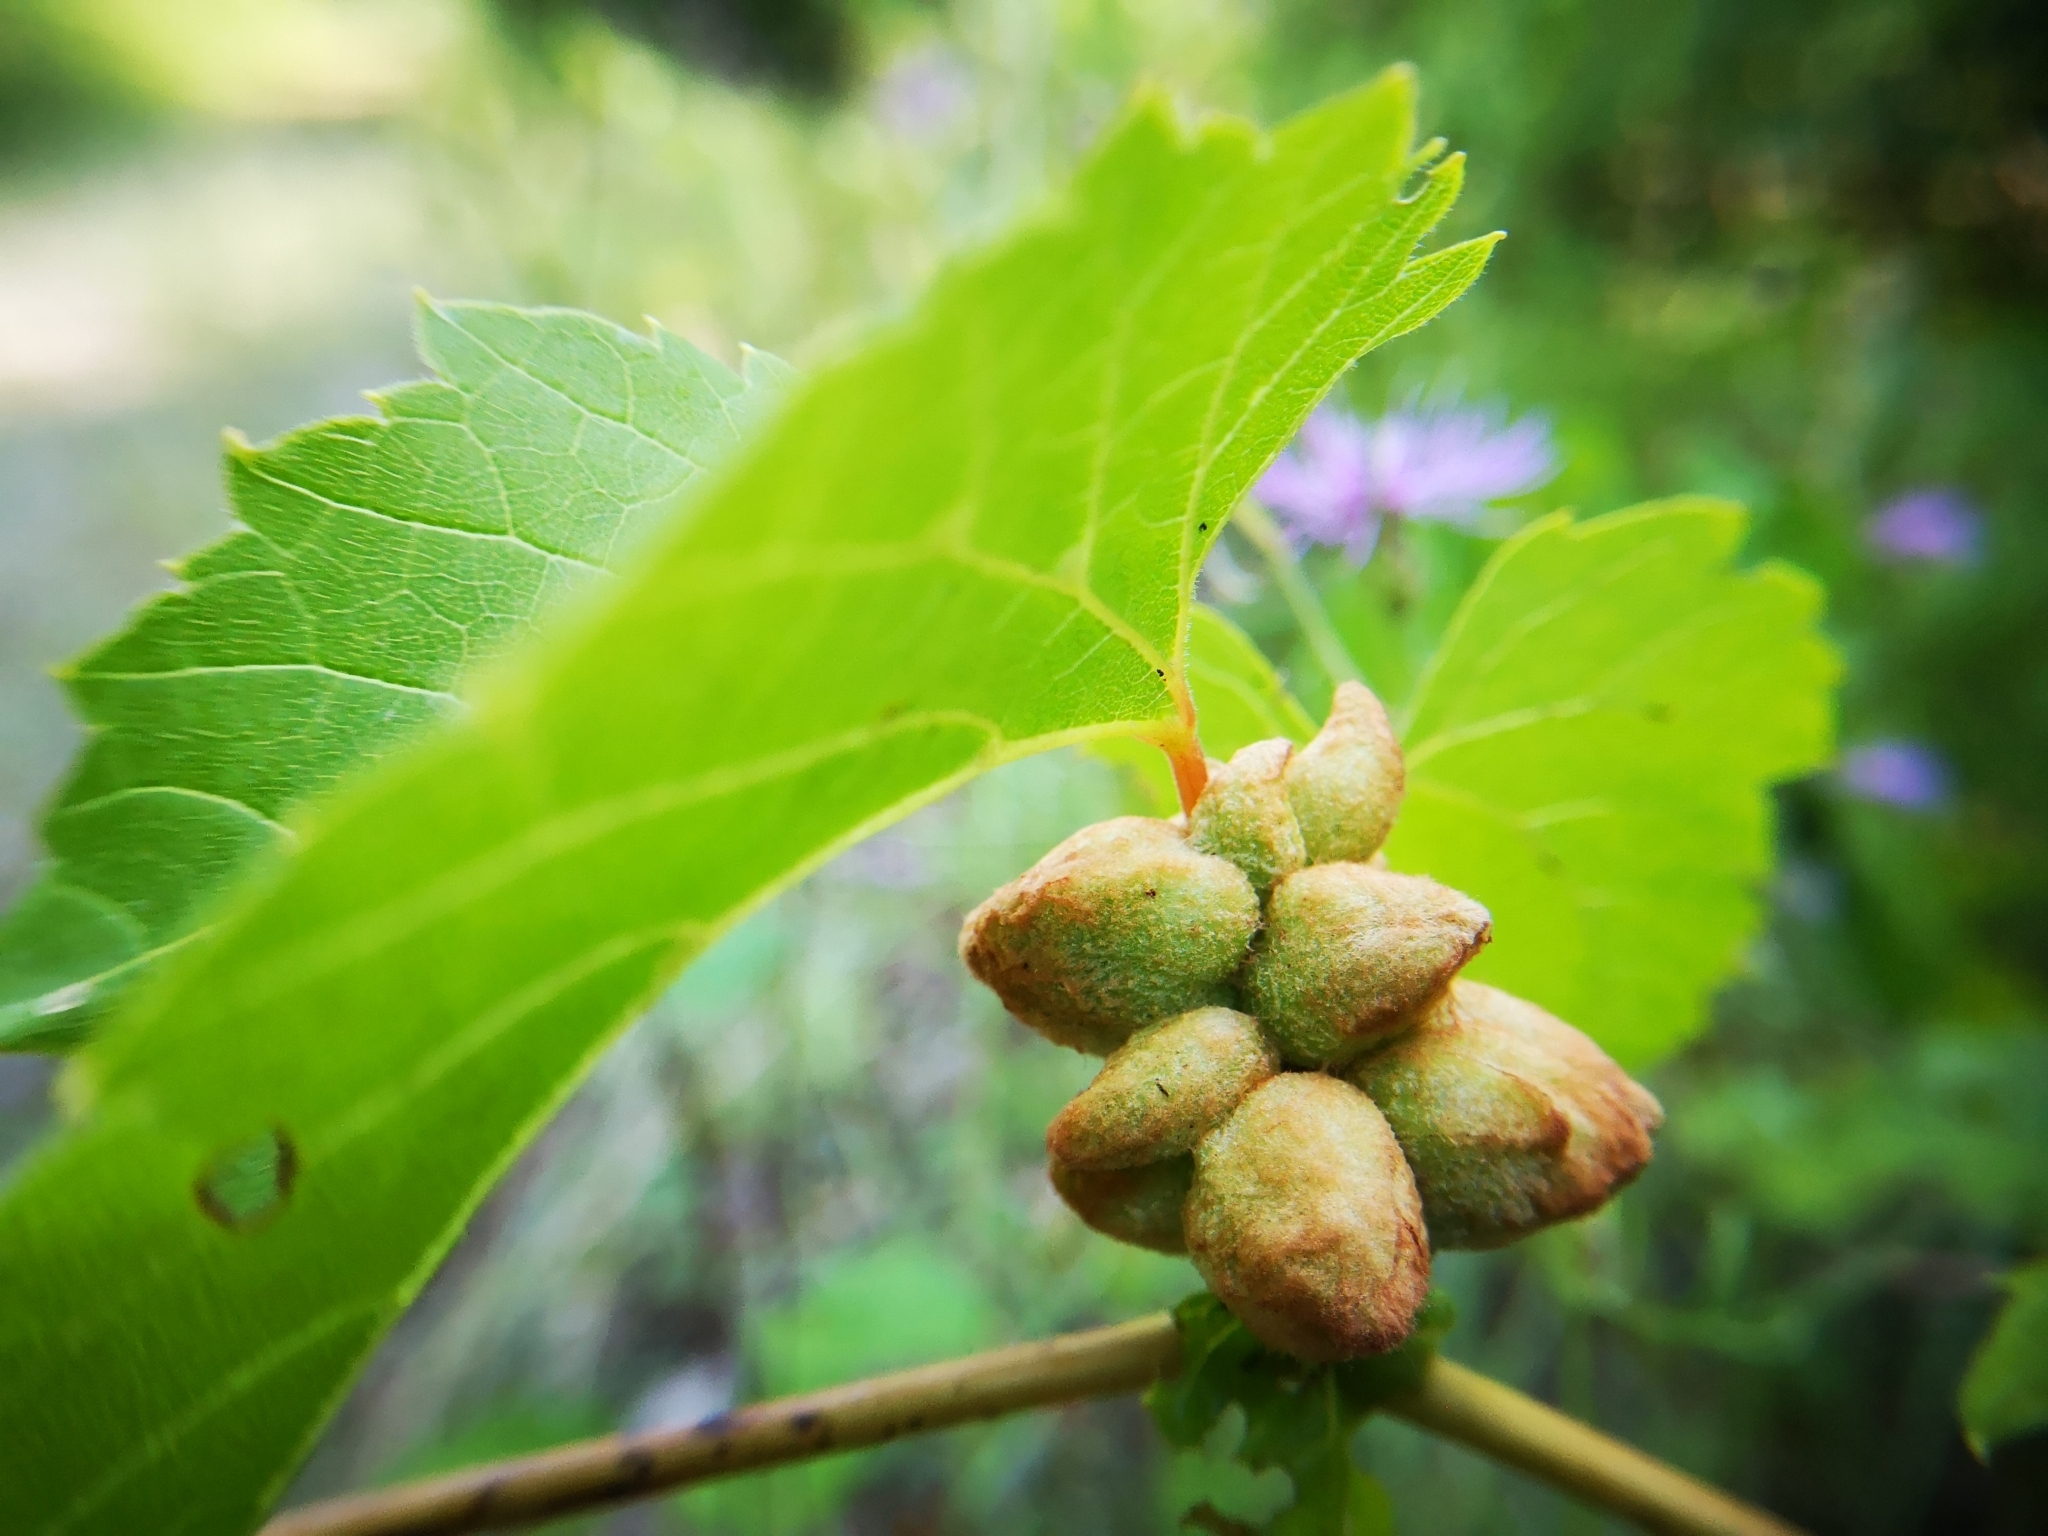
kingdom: Animalia
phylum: Arthropoda
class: Insecta
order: Diptera
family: Cecidomyiidae
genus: Ampelomyia
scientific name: Ampelomyia vitiscoryloides
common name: Grape filbert gall
